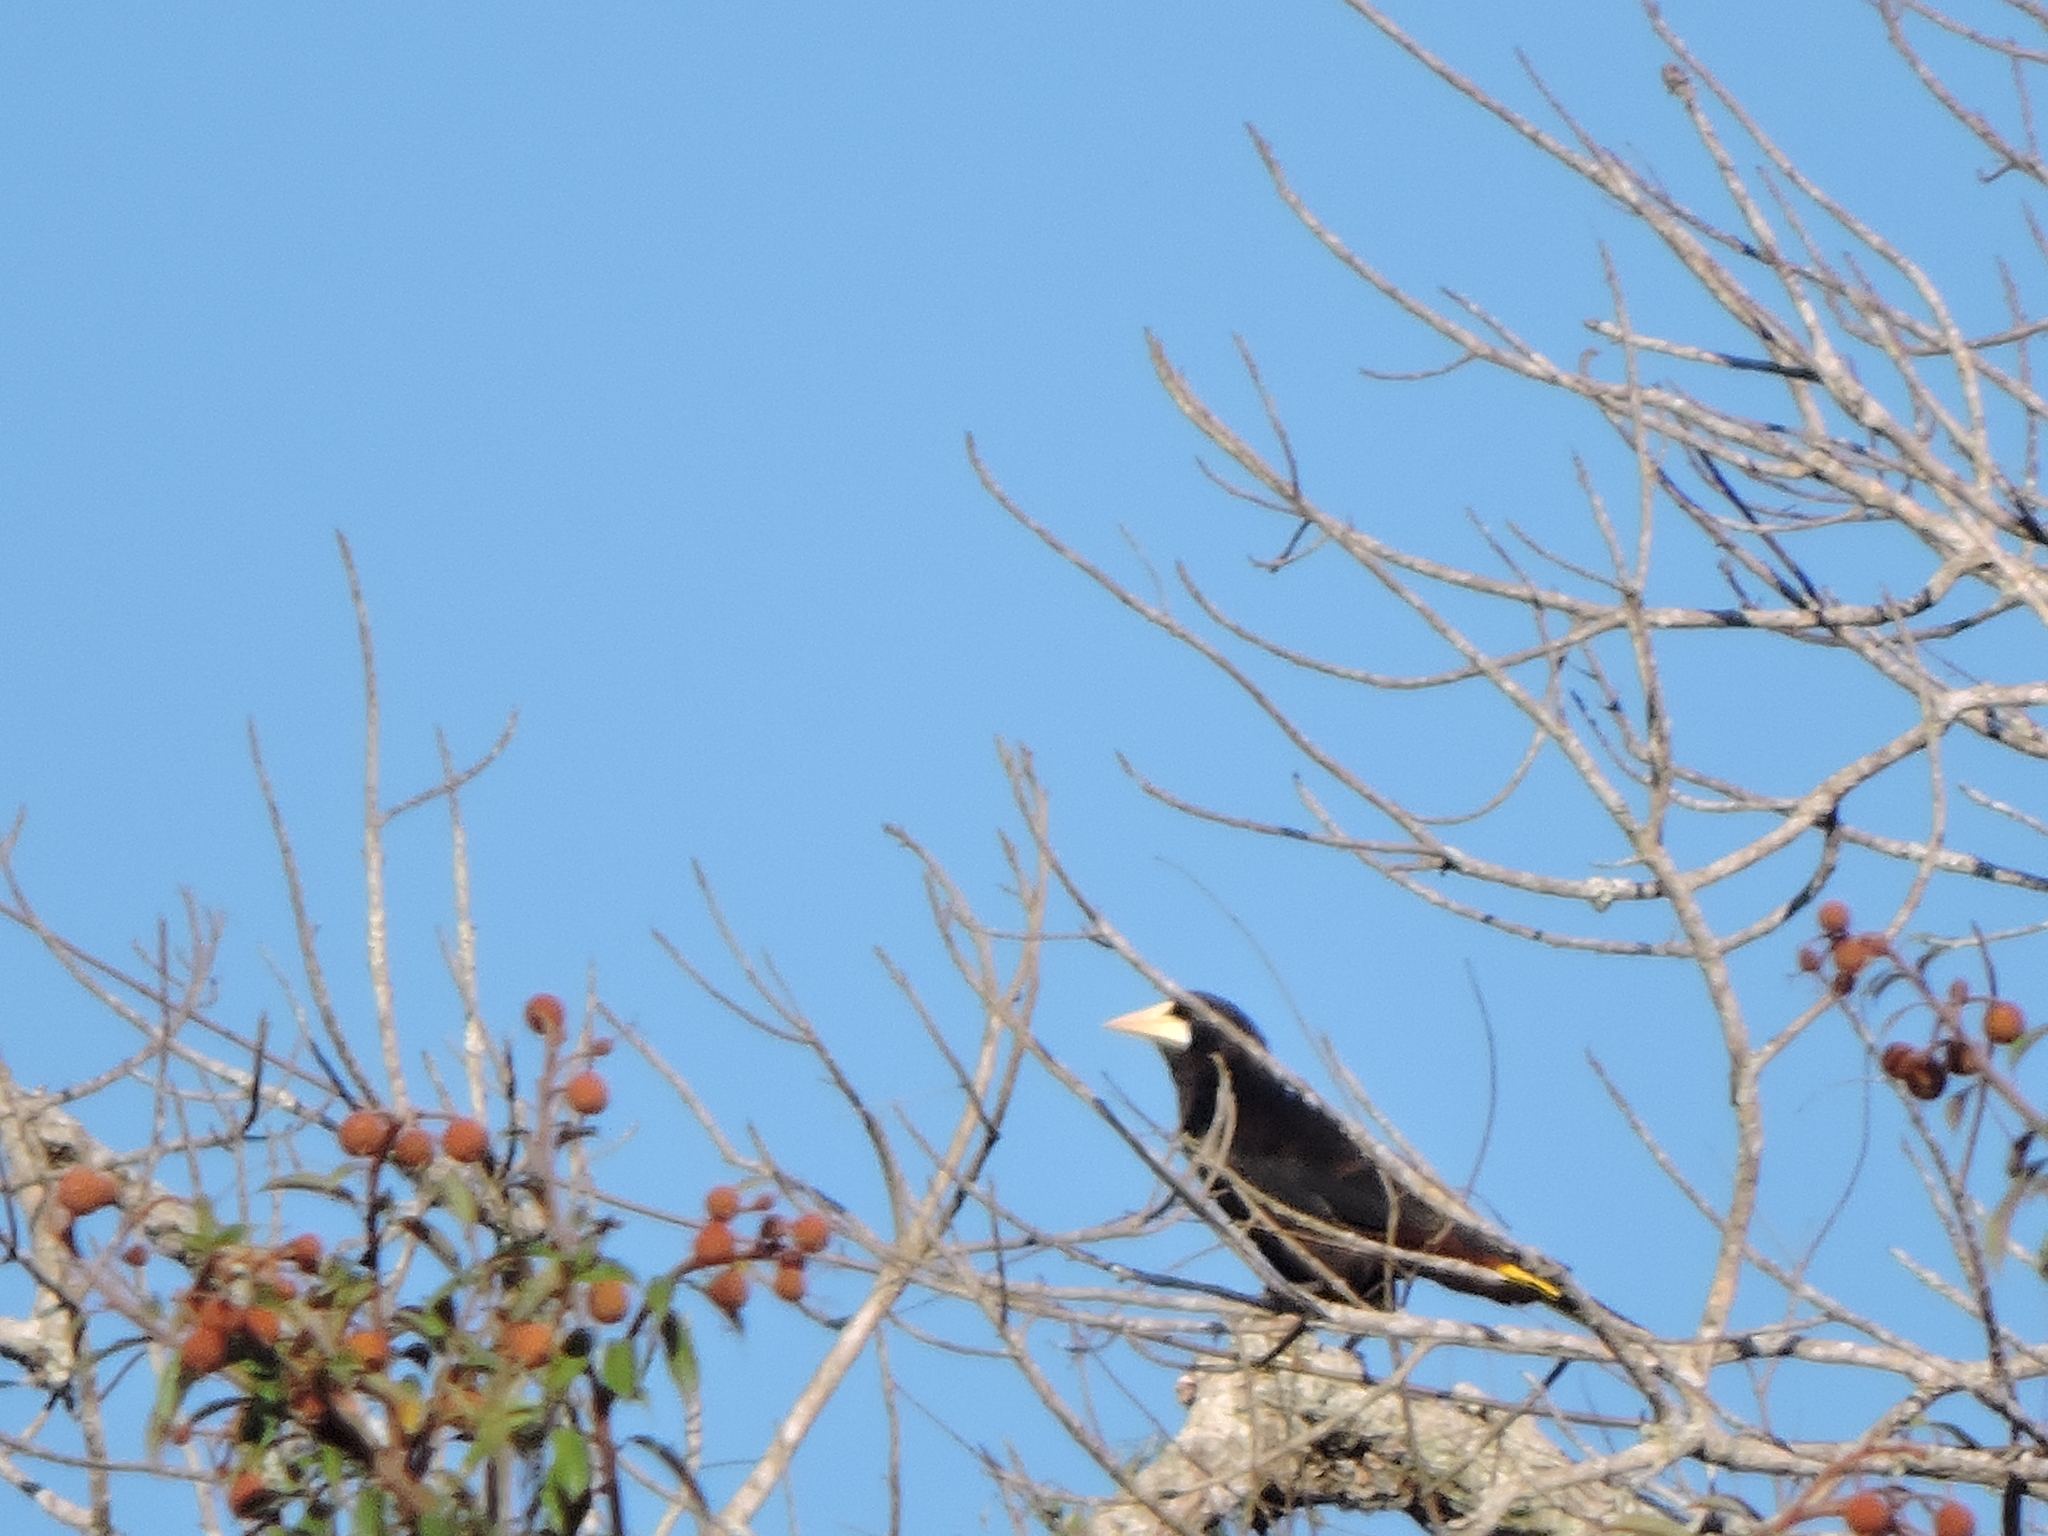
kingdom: Animalia
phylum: Chordata
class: Aves
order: Passeriformes
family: Icteridae
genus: Psarocolius
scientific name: Psarocolius decumanus
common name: Crested oropendola
